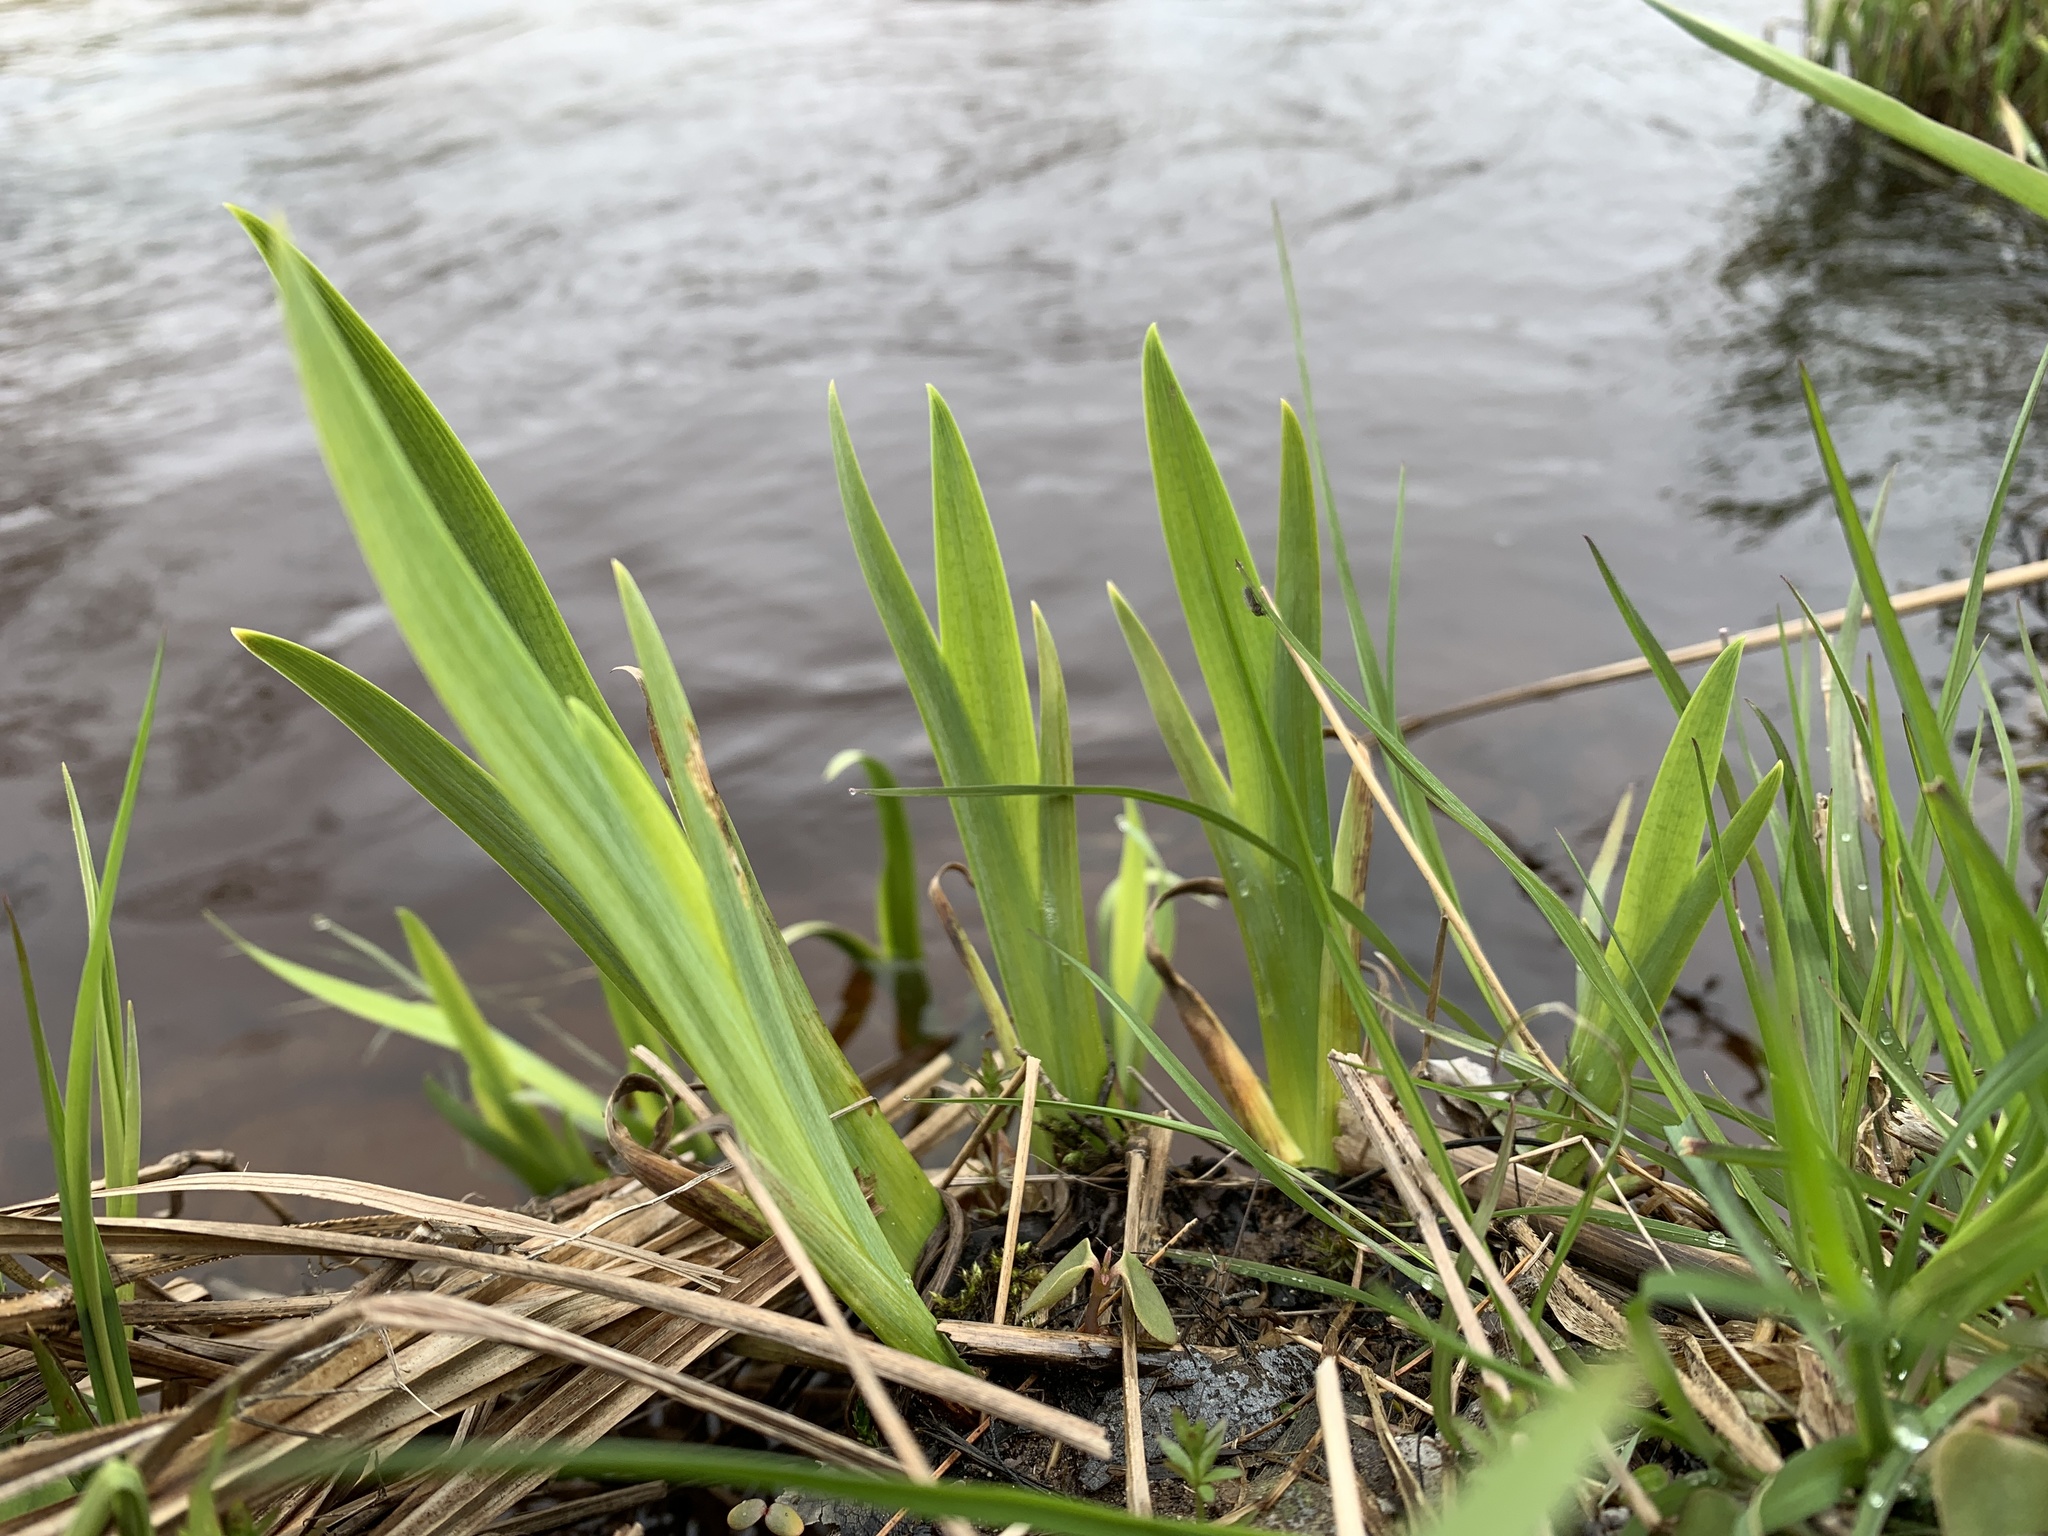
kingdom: Plantae
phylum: Tracheophyta
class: Liliopsida
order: Asparagales
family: Iridaceae
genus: Iris
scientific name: Iris versicolor
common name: Purple iris
